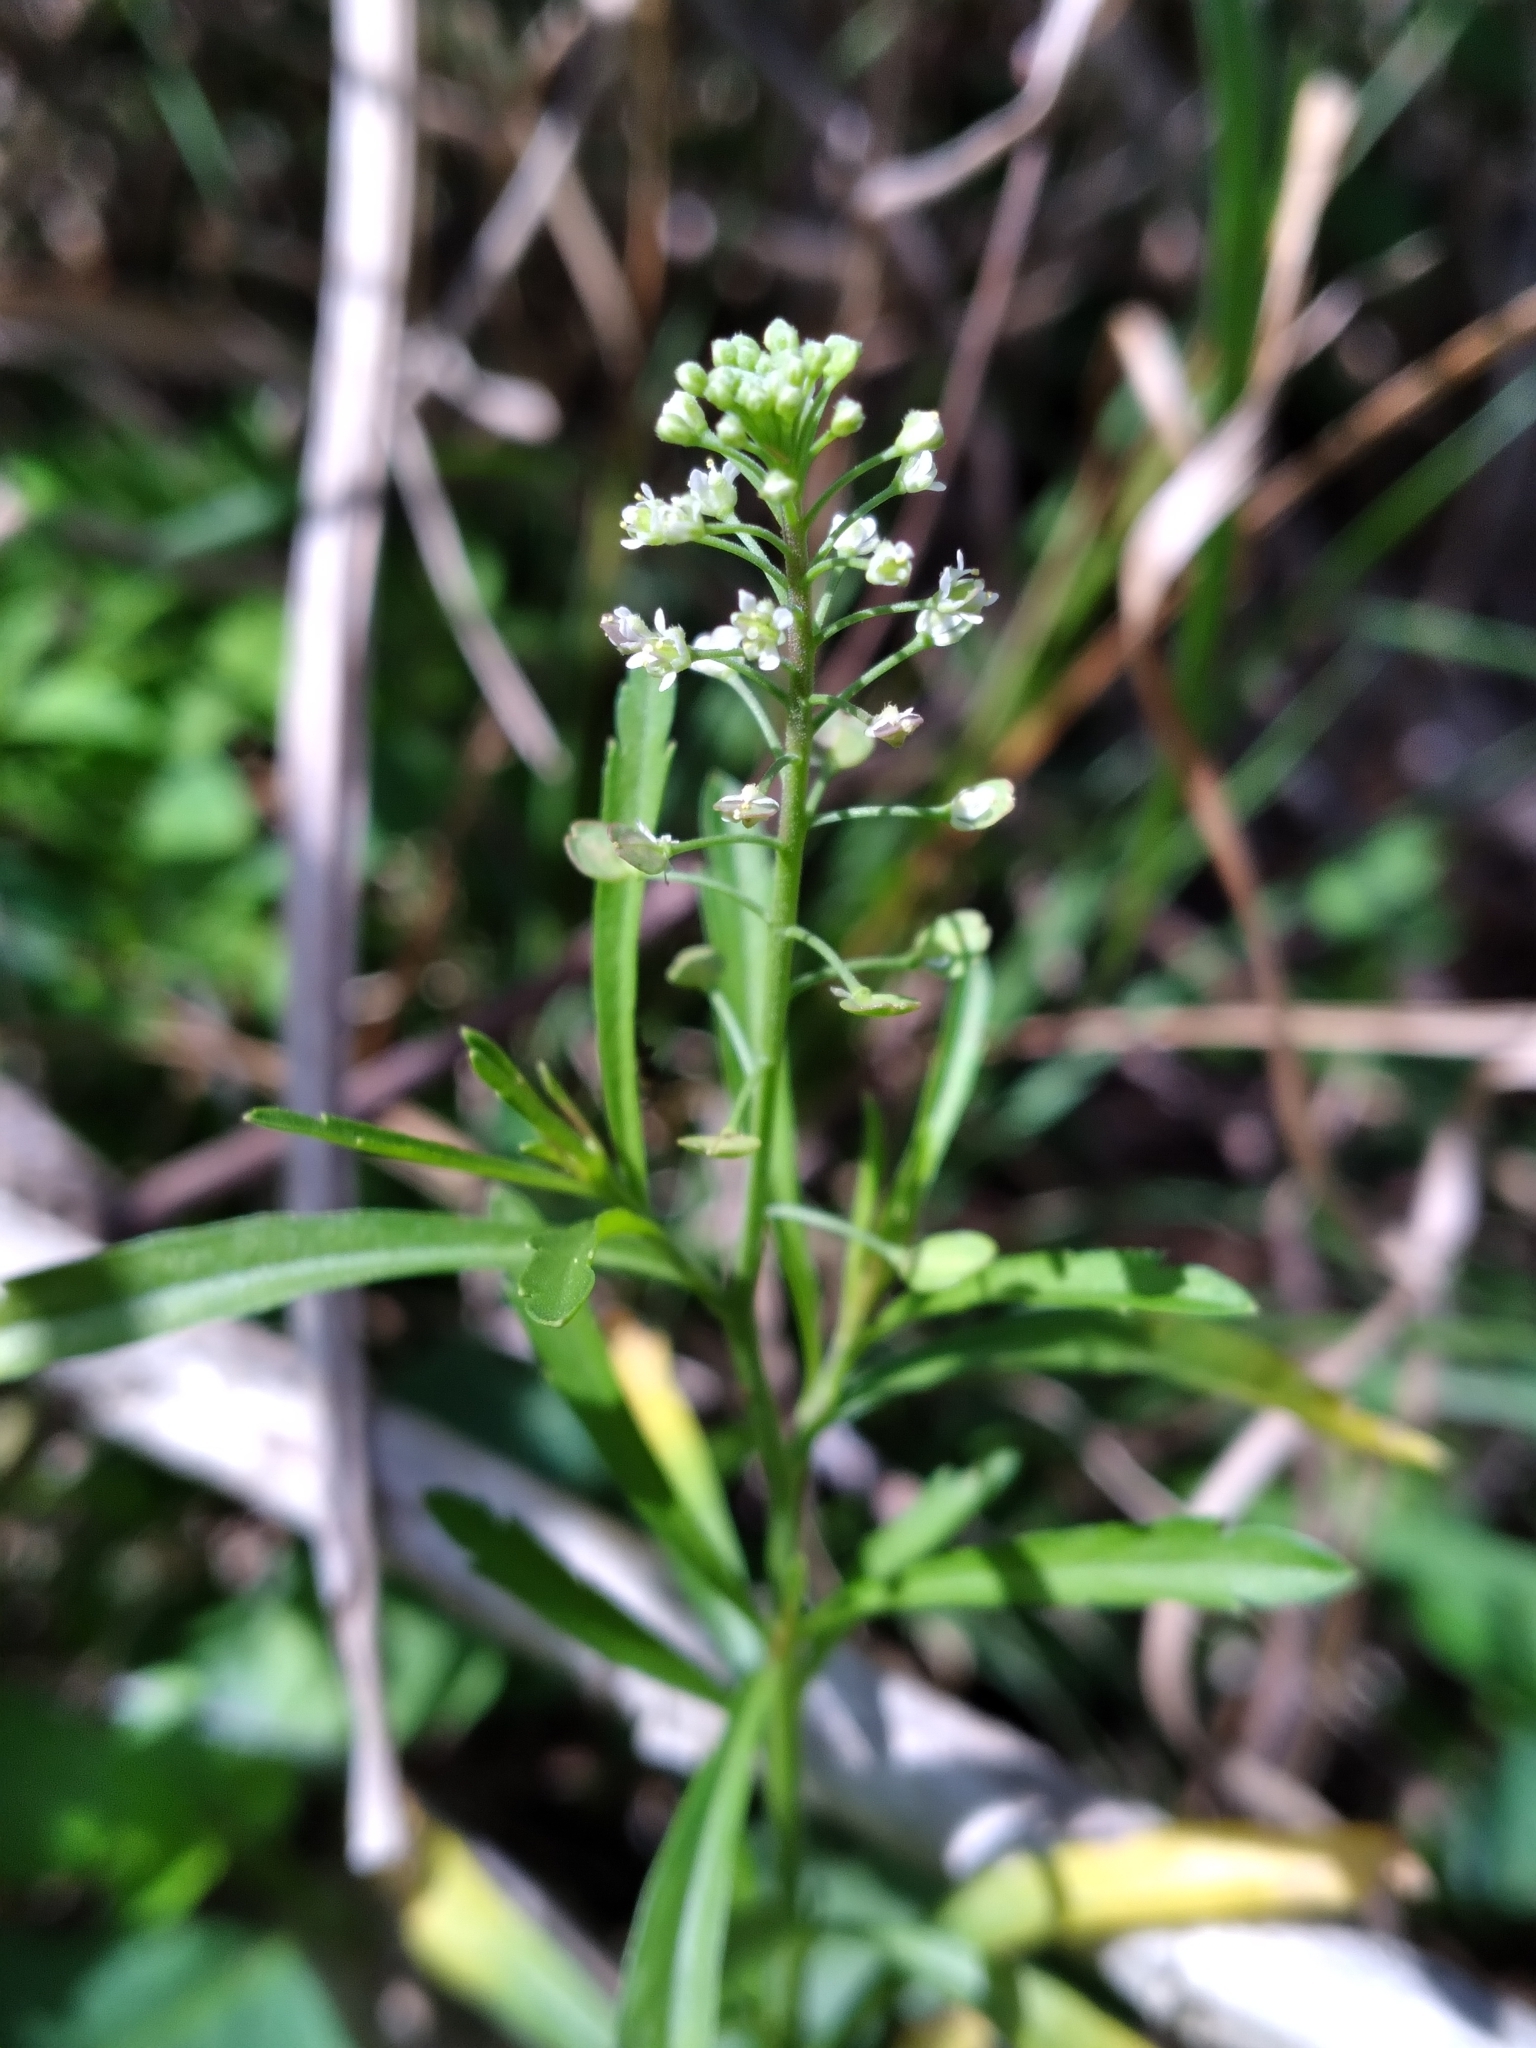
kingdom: Plantae
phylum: Tracheophyta
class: Magnoliopsida
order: Brassicales
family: Brassicaceae
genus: Lepidium
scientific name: Lepidium virginicum
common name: Least pepperwort
